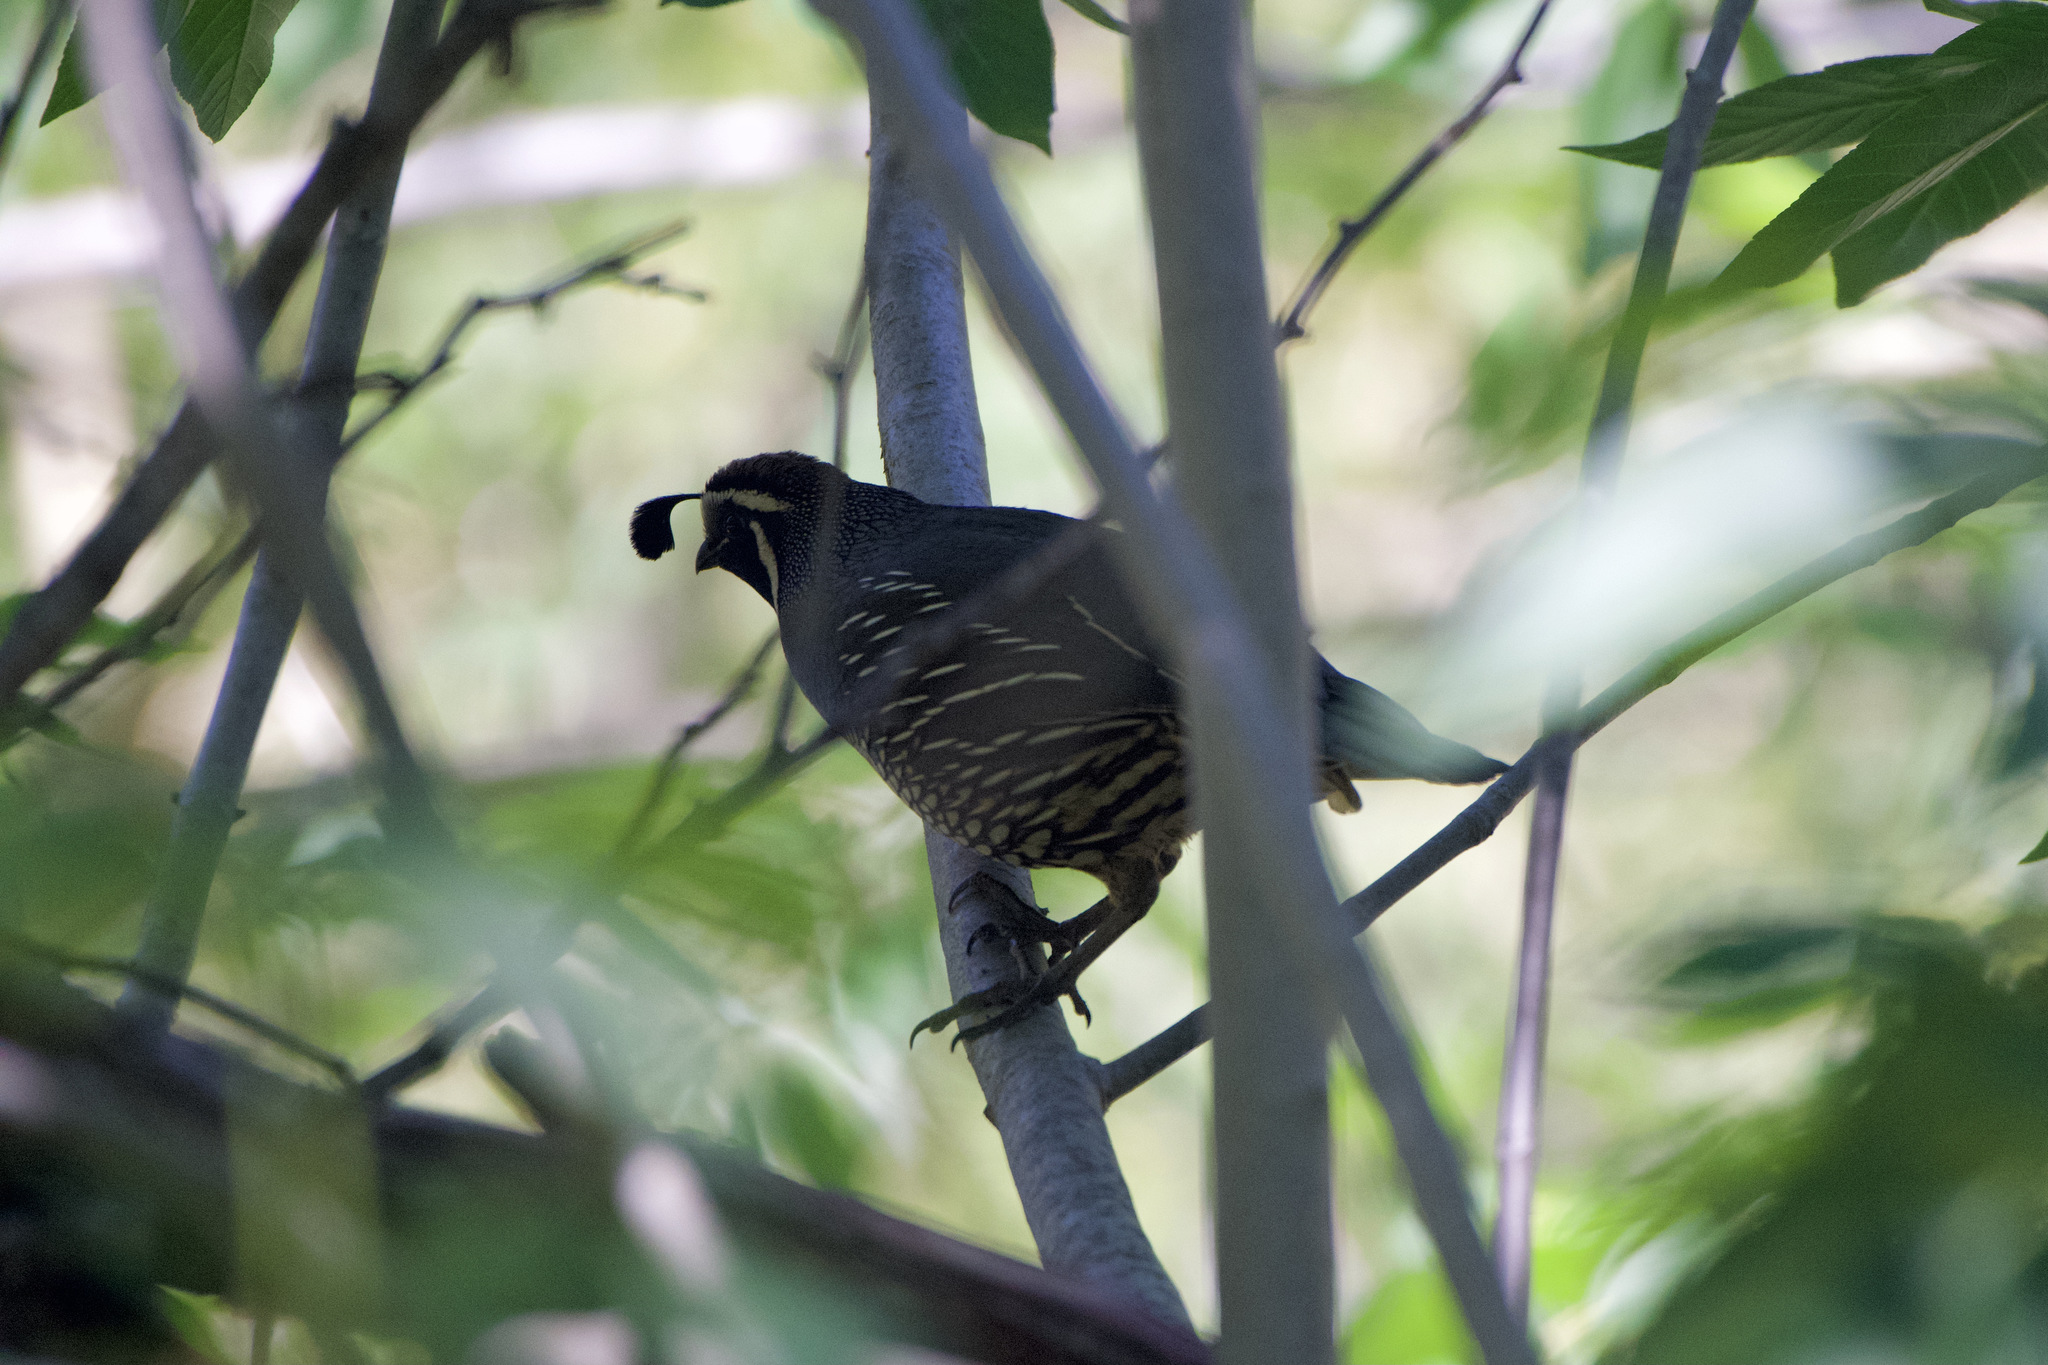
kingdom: Animalia
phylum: Chordata
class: Aves
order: Galliformes
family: Odontophoridae
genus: Callipepla
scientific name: Callipepla californica
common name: California quail
